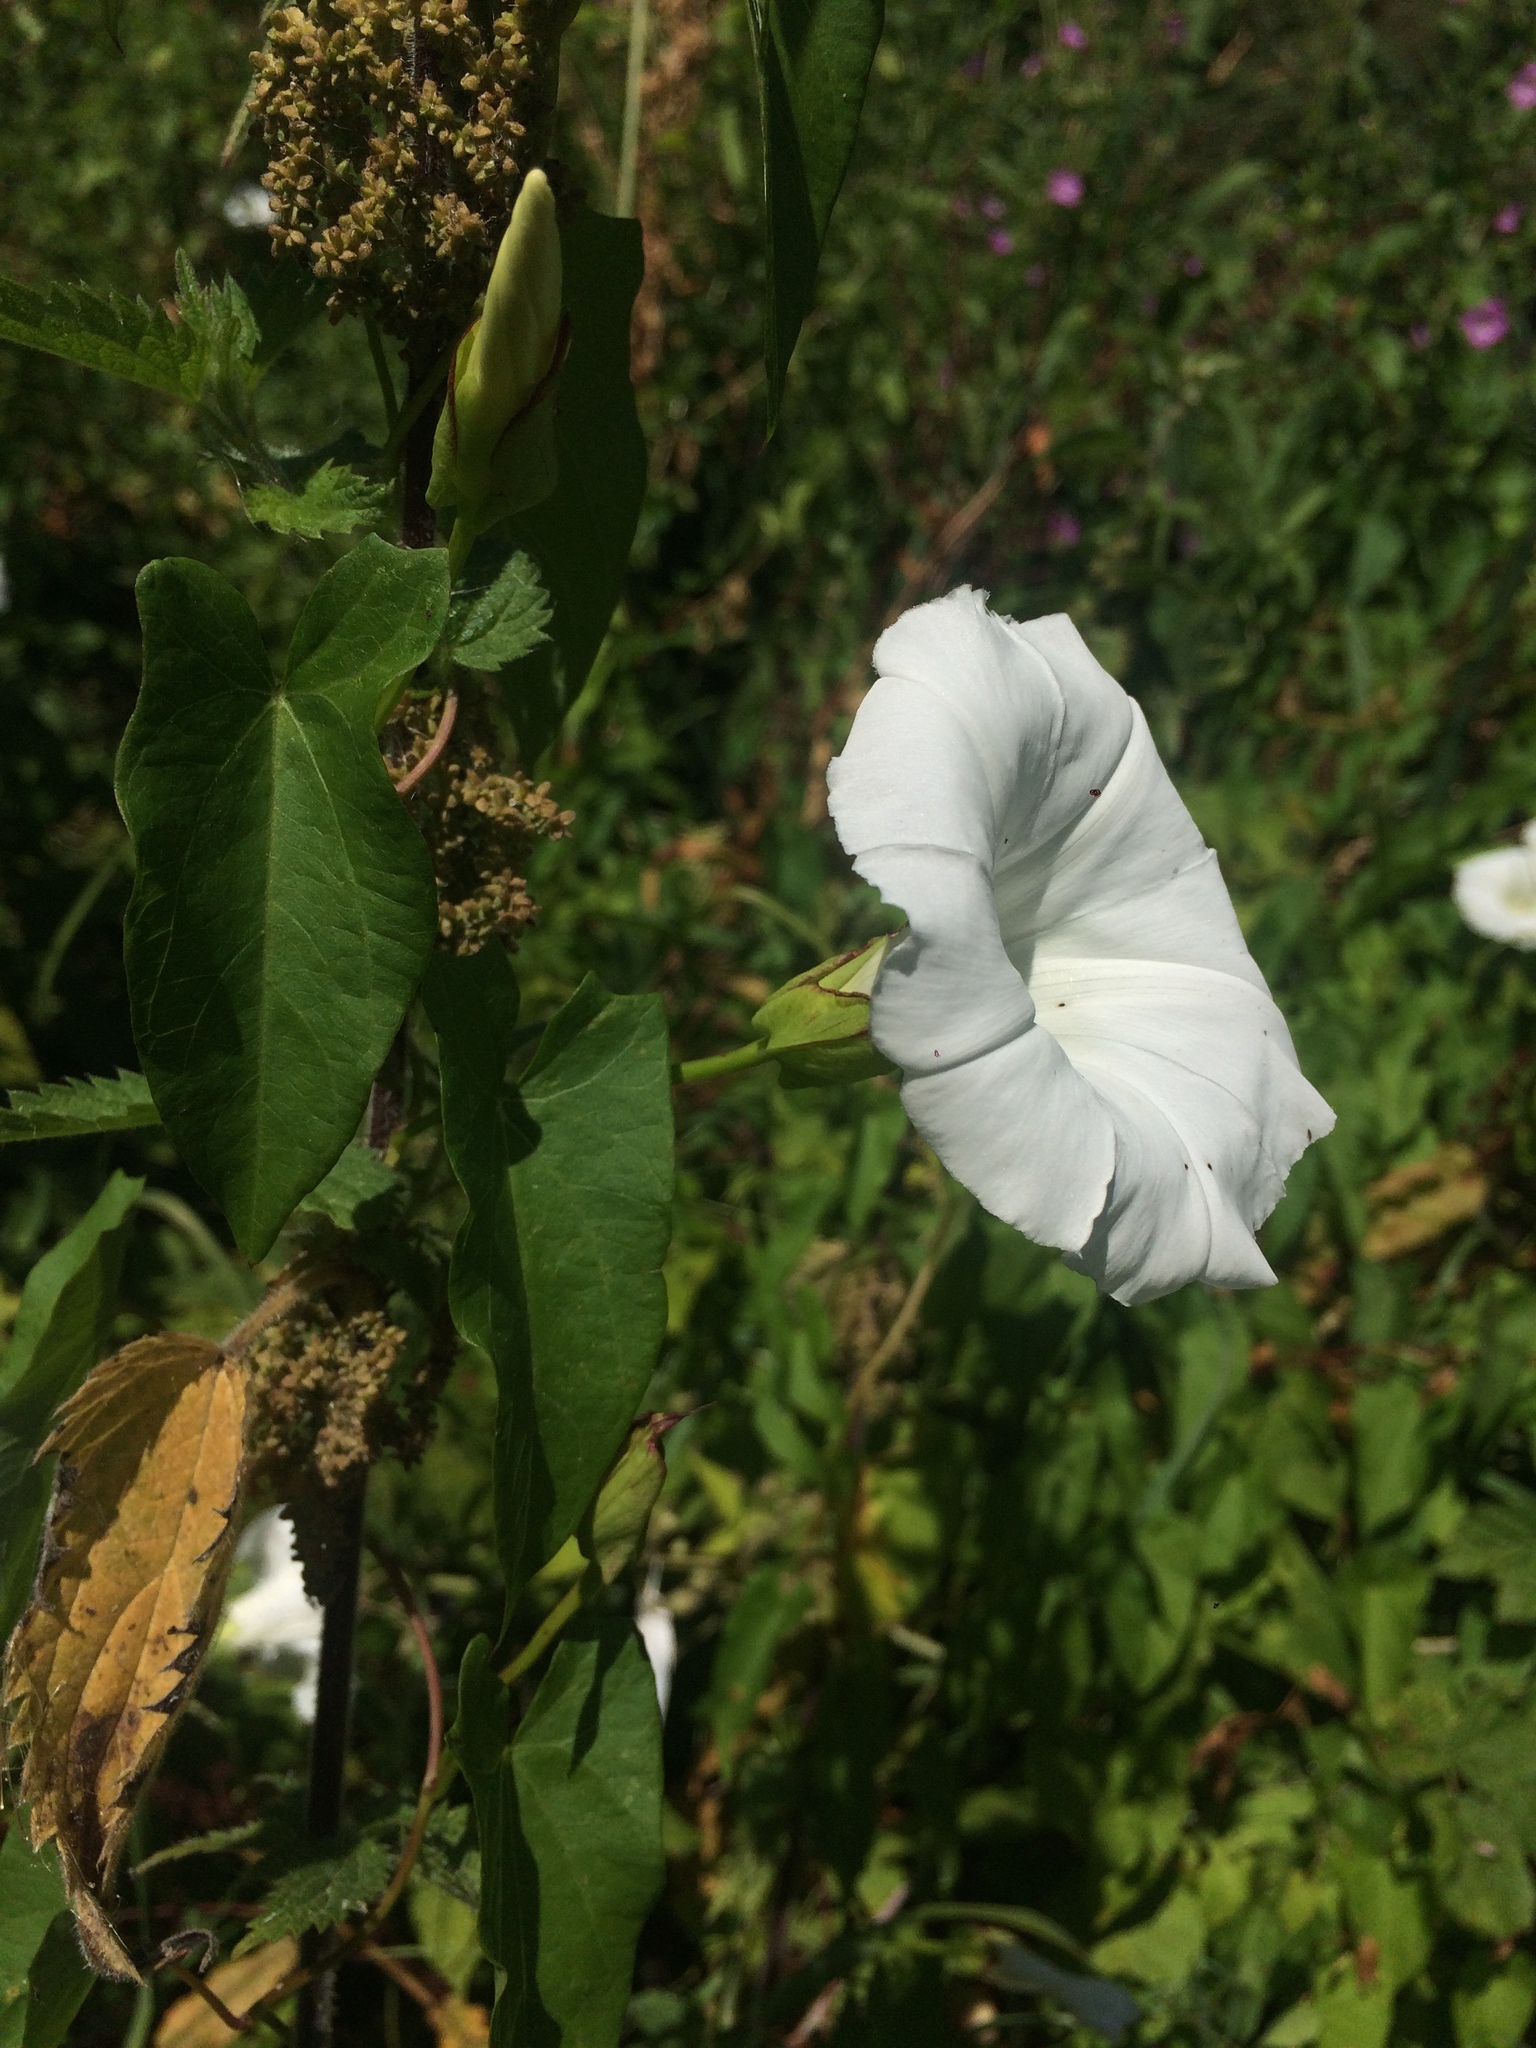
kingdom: Plantae
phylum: Tracheophyta
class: Magnoliopsida
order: Solanales
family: Convolvulaceae
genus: Calystegia
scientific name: Calystegia sepium
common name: Hedge bindweed
